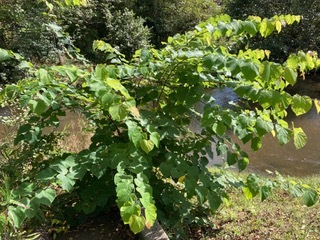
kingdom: Plantae
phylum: Tracheophyta
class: Magnoliopsida
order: Fabales
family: Fabaceae
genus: Cercis
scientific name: Cercis canadensis
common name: Eastern redbud
